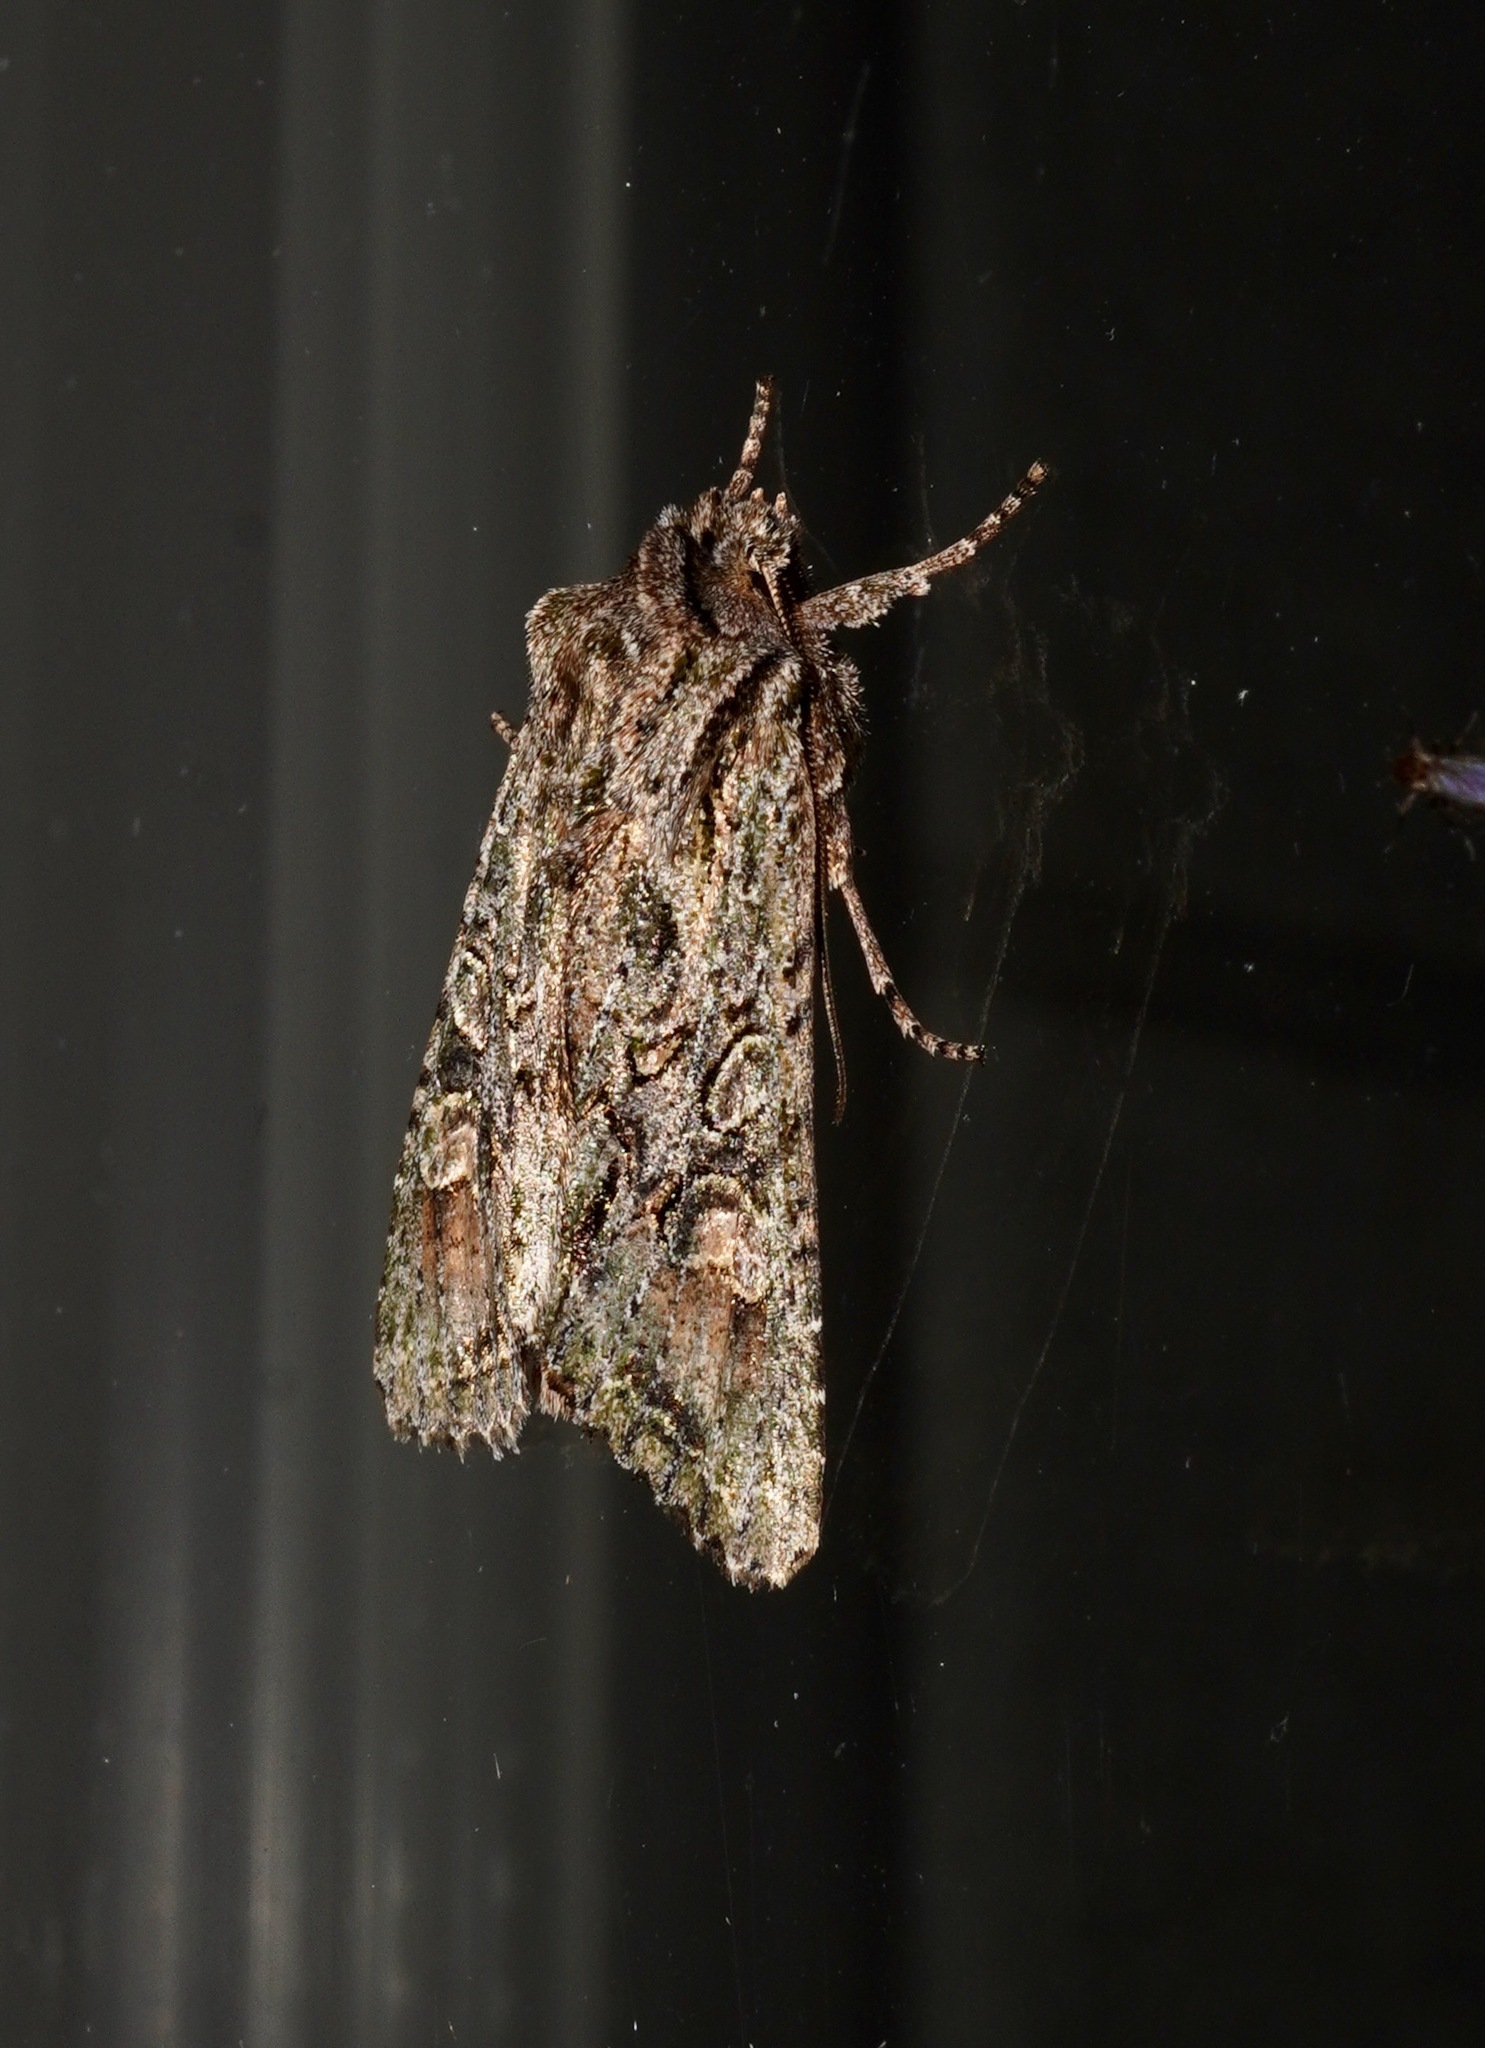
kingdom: Animalia
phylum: Arthropoda
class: Insecta
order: Lepidoptera
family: Noctuidae
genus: Ichneutica
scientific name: Ichneutica mutans
